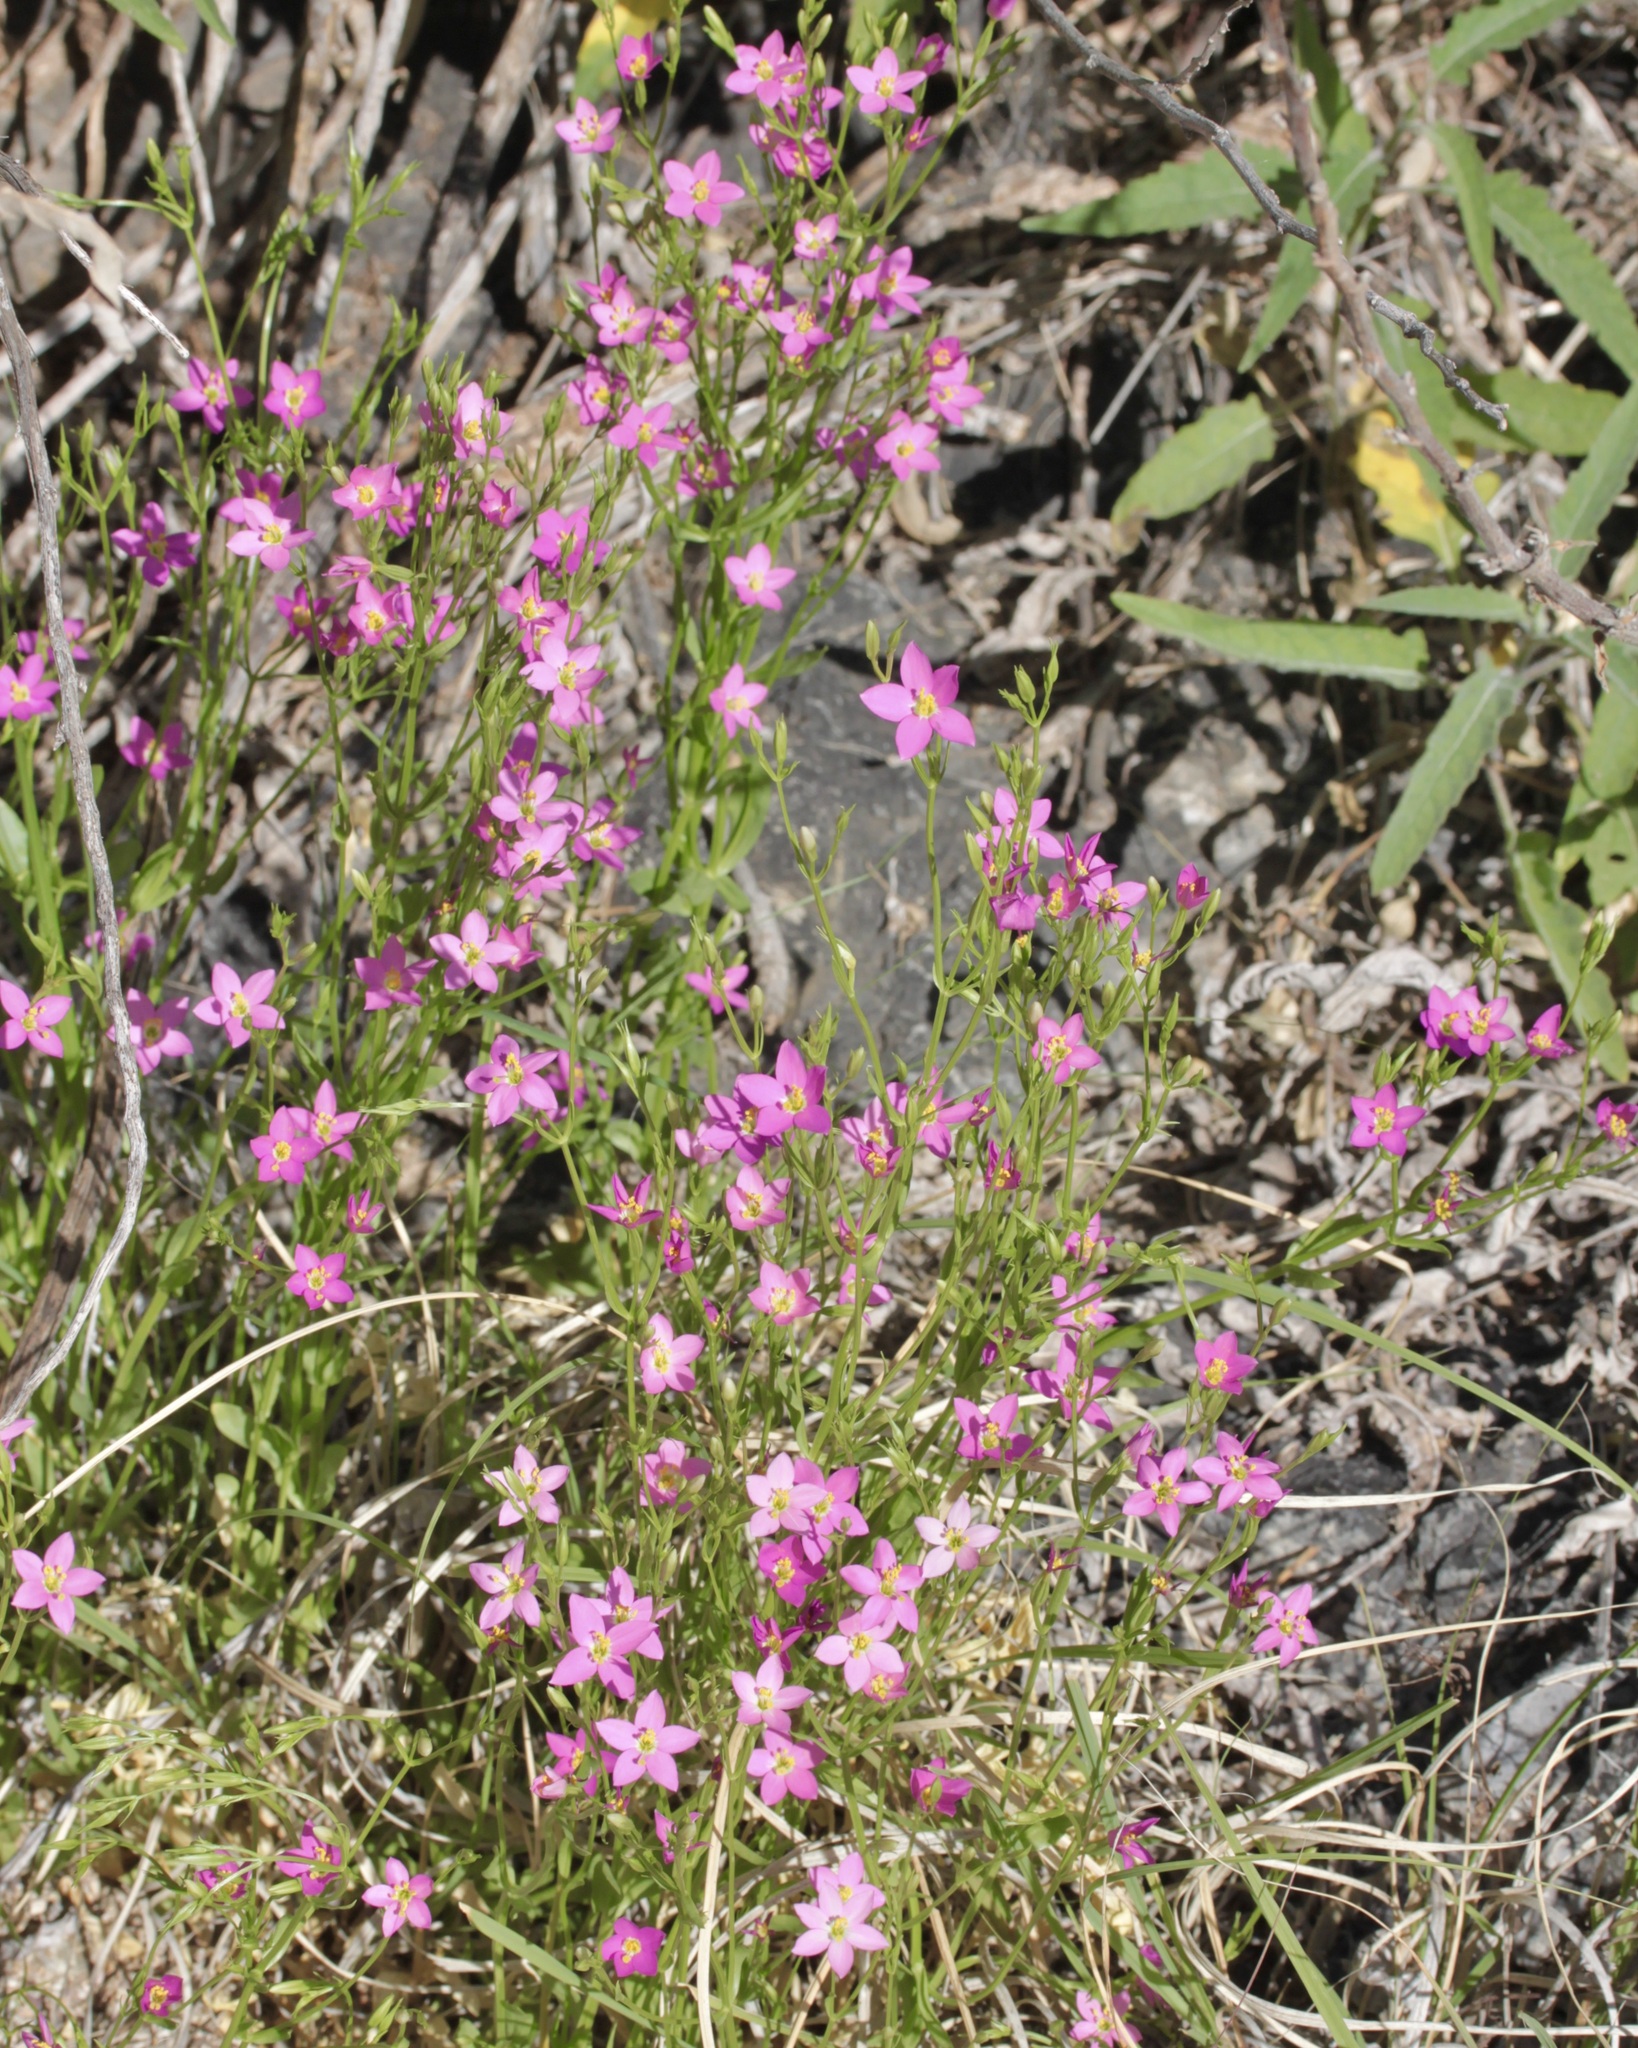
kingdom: Plantae
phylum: Tracheophyta
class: Magnoliopsida
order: Gentianales
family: Gentianaceae
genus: Zeltnera
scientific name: Zeltnera arizonica
